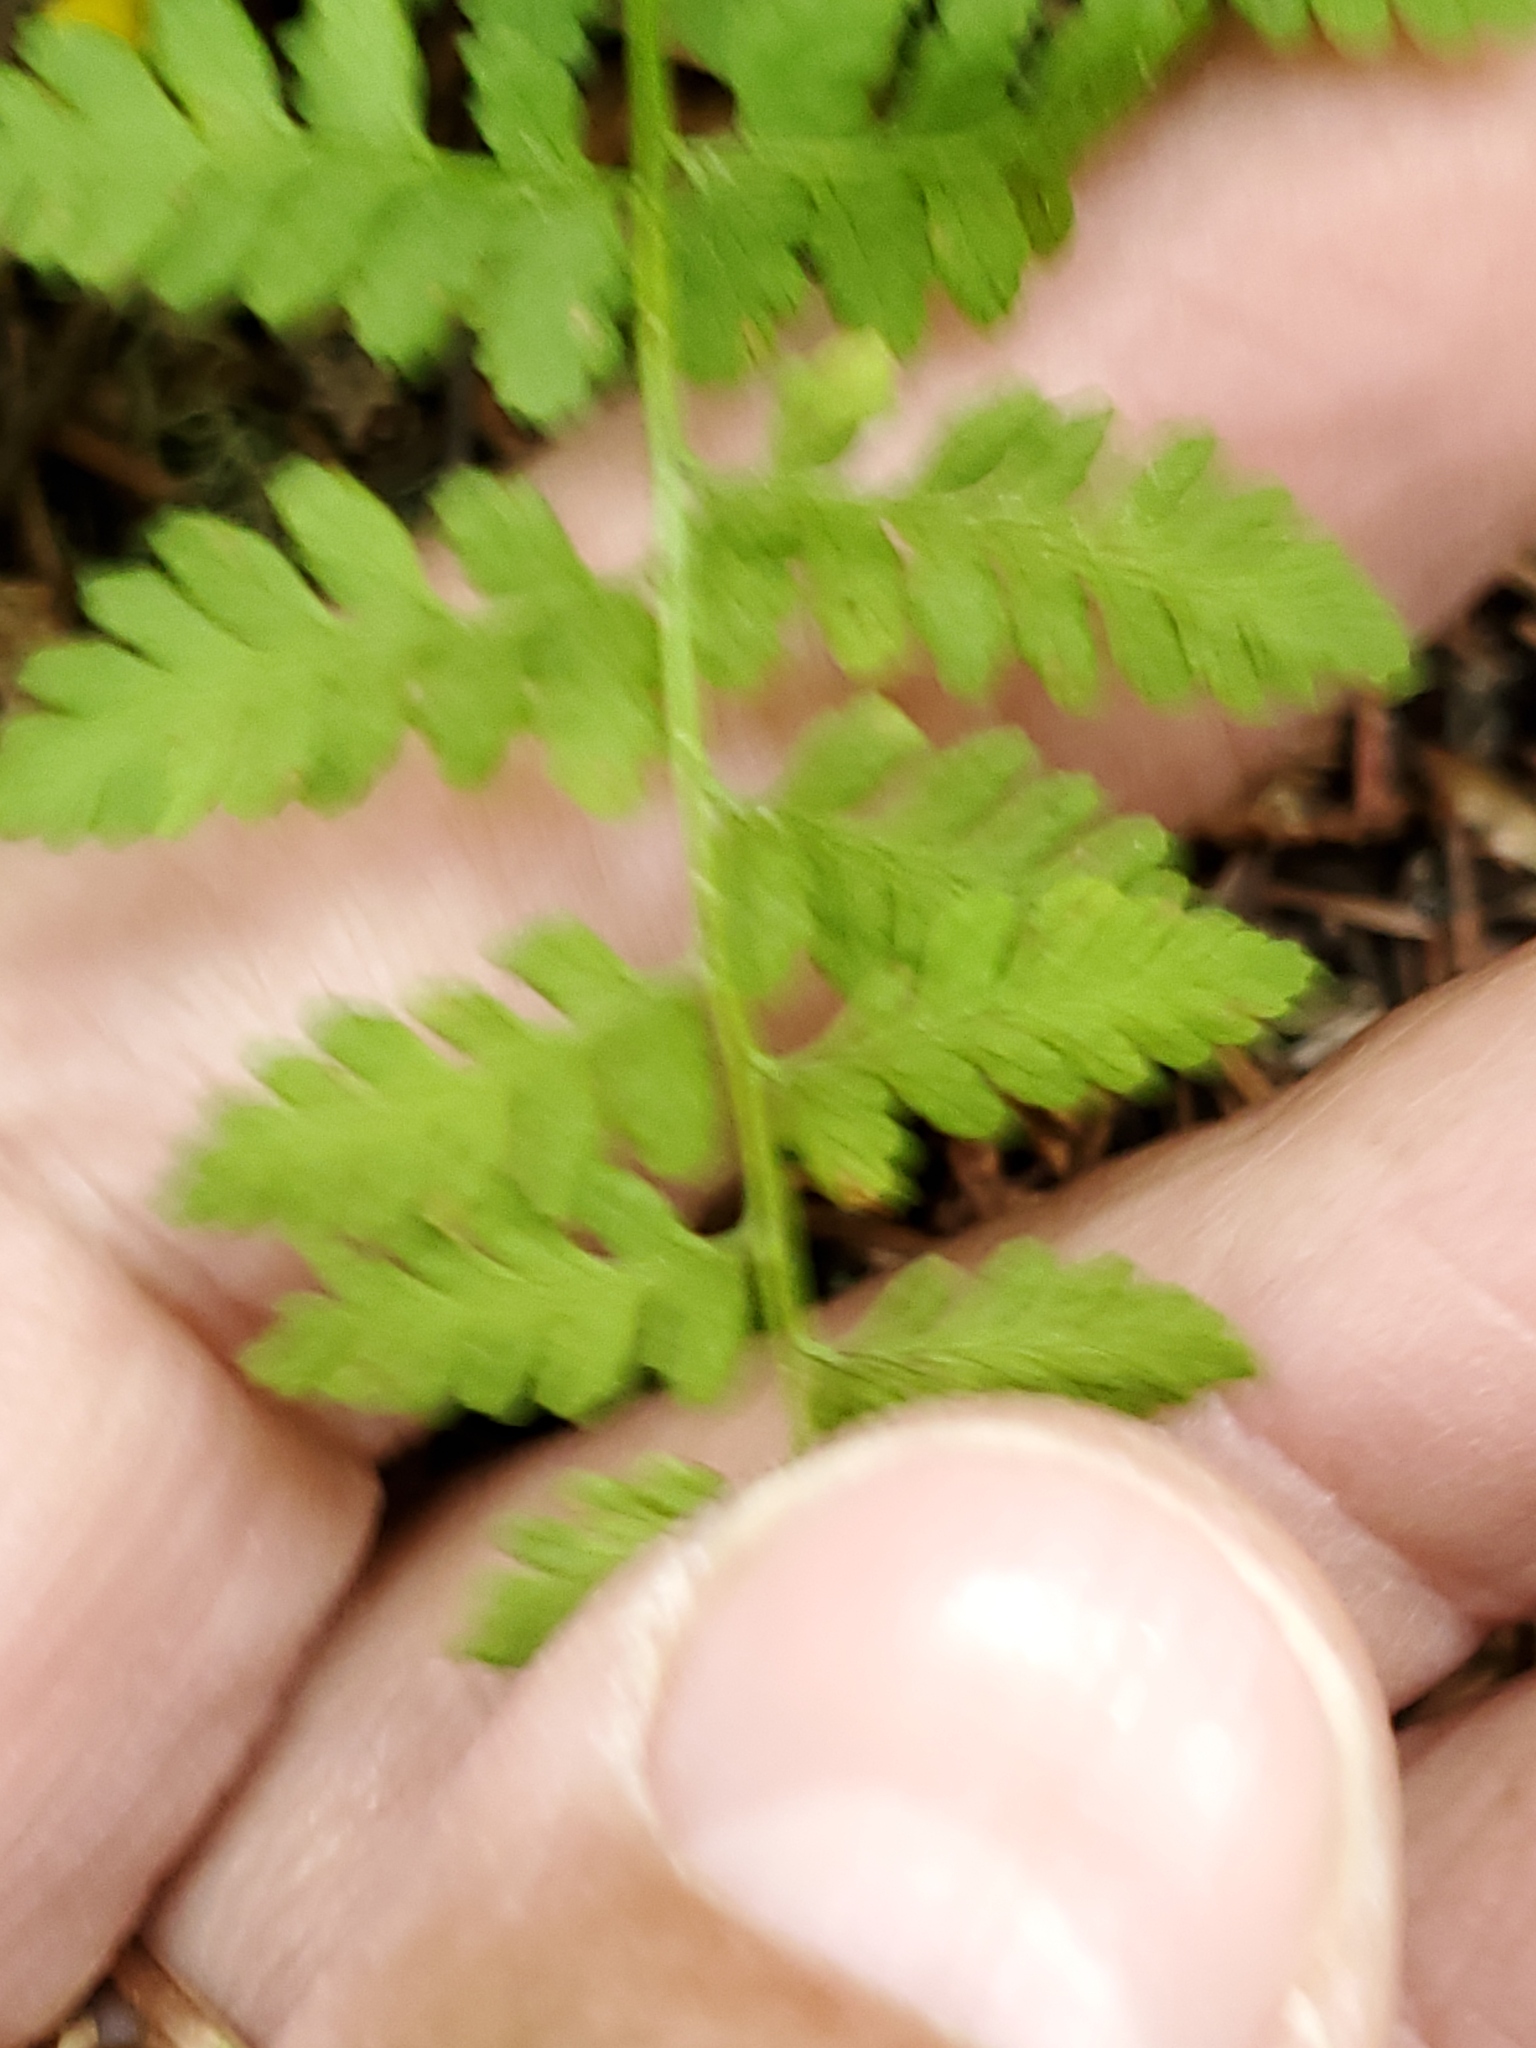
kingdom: Plantae
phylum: Tracheophyta
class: Polypodiopsida
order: Polypodiales
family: Cystopteridaceae
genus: Cystopteris
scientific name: Cystopteris fragilis
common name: Brittle bladder fern
